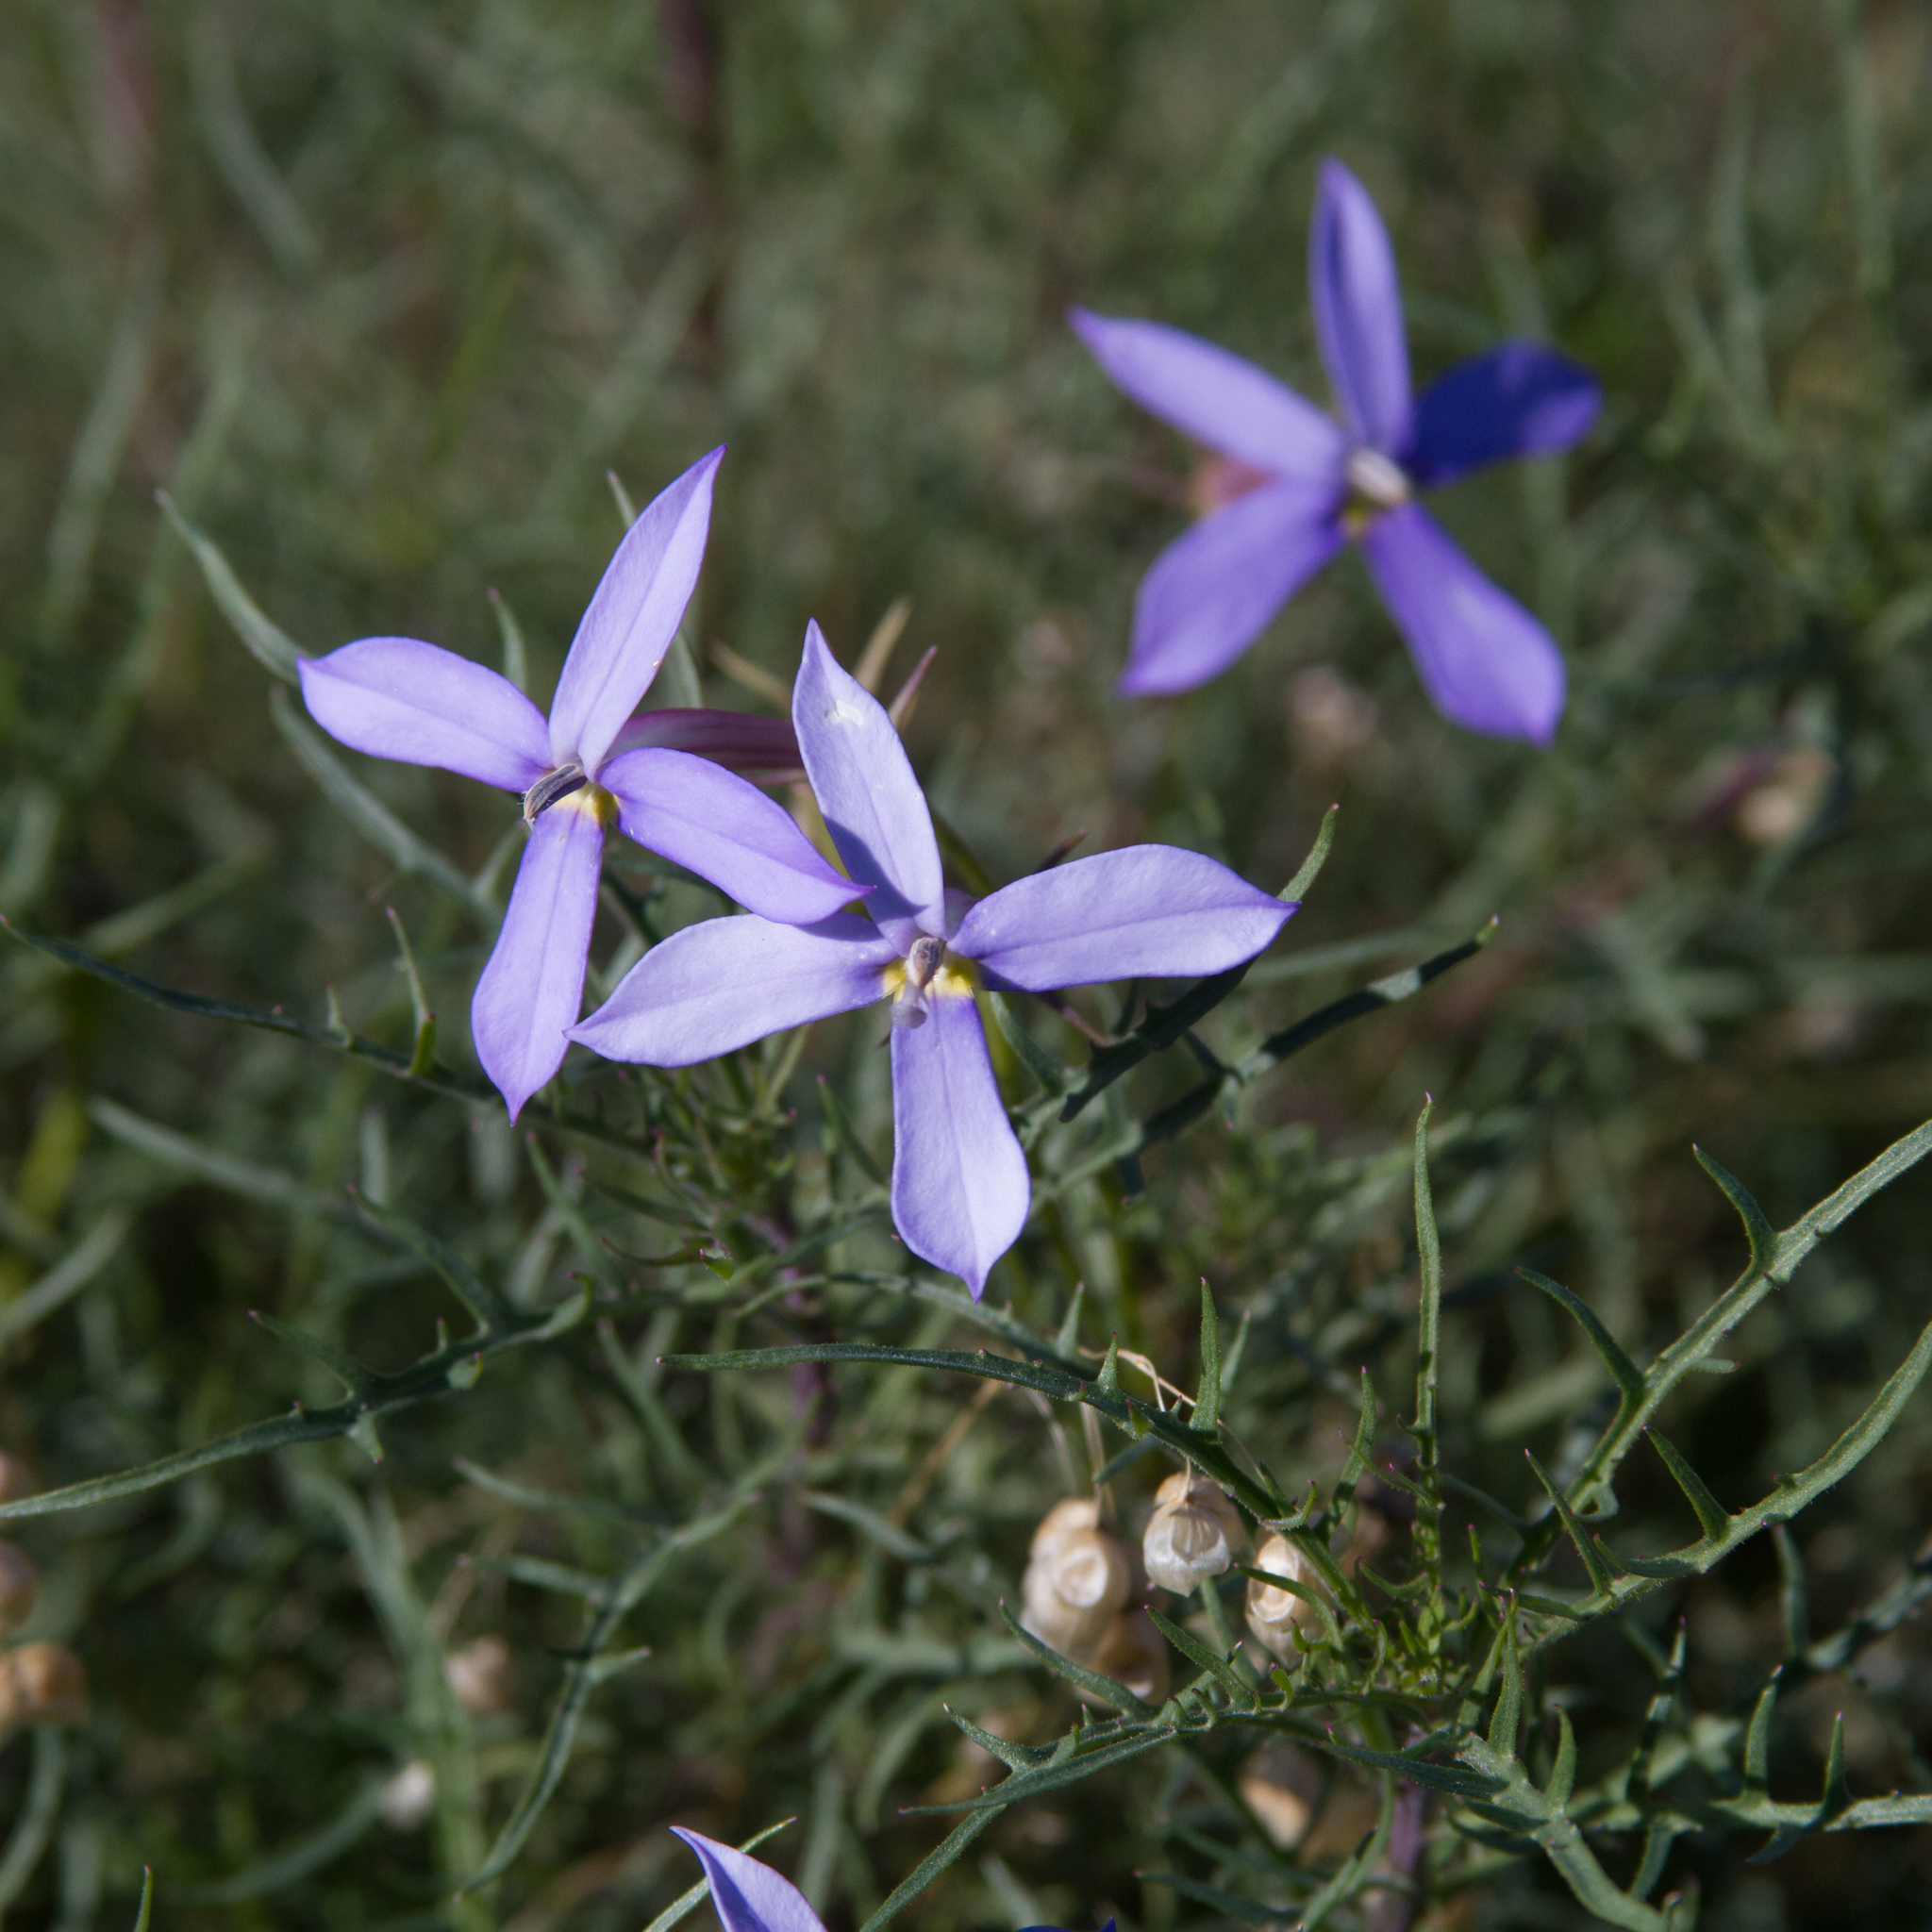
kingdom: Plantae
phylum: Tracheophyta
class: Magnoliopsida
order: Asterales
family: Campanulaceae
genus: Lithotoma
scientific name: Lithotoma axillaris
